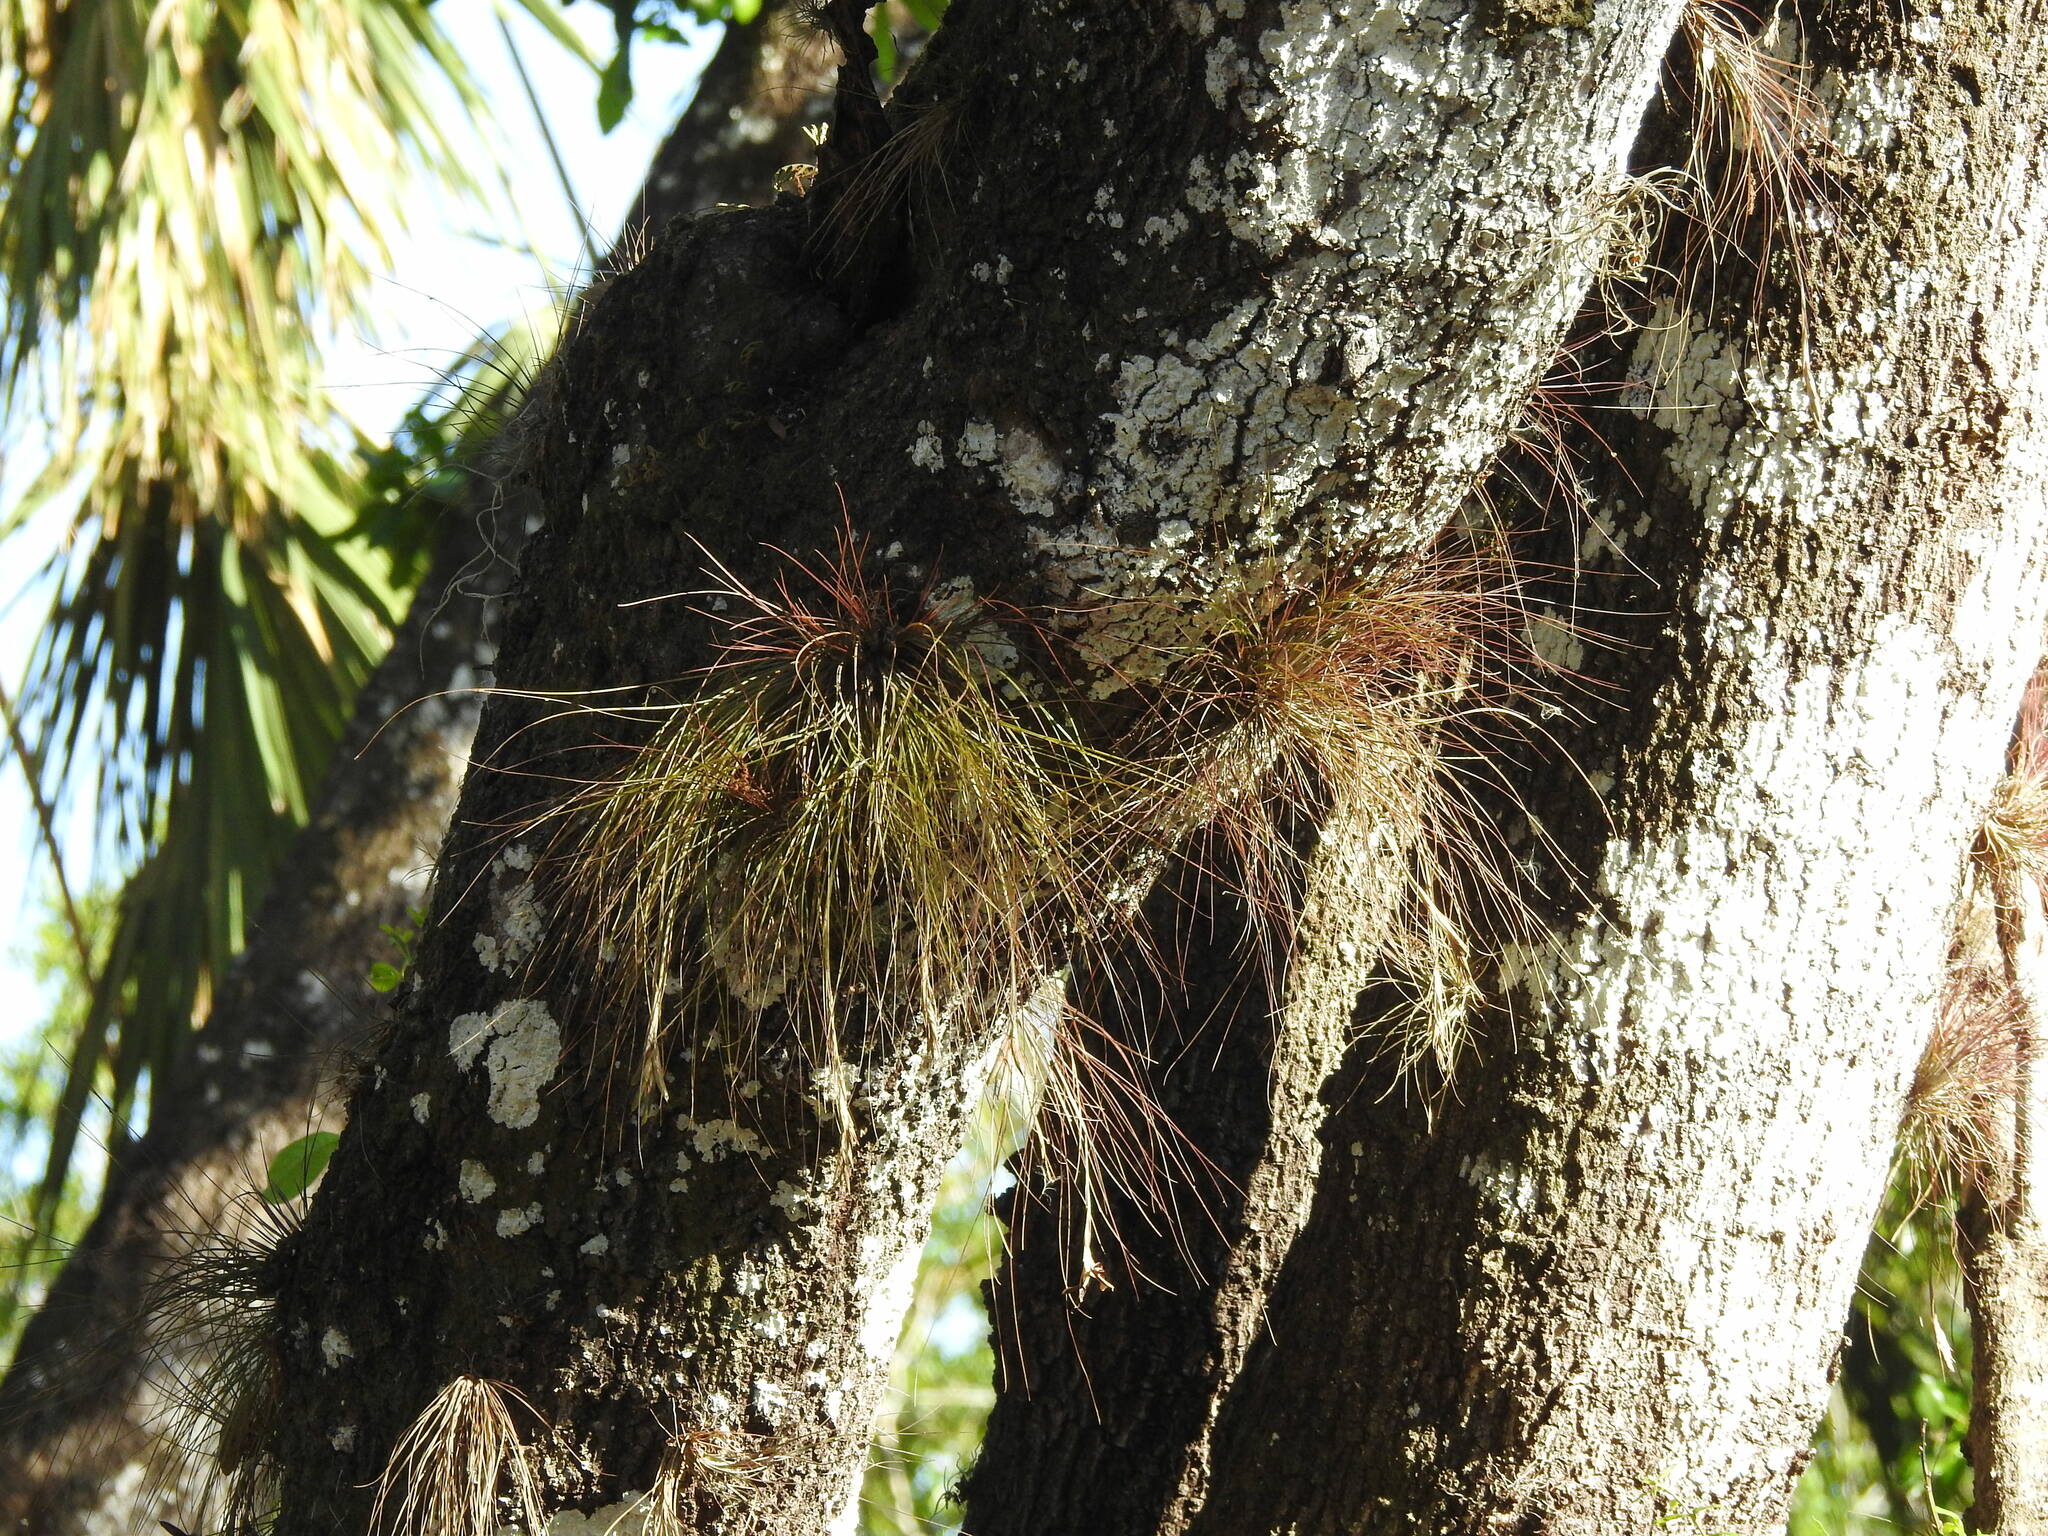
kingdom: Plantae
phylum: Tracheophyta
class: Liliopsida
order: Poales
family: Bromeliaceae
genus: Tillandsia
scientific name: Tillandsia setacea
